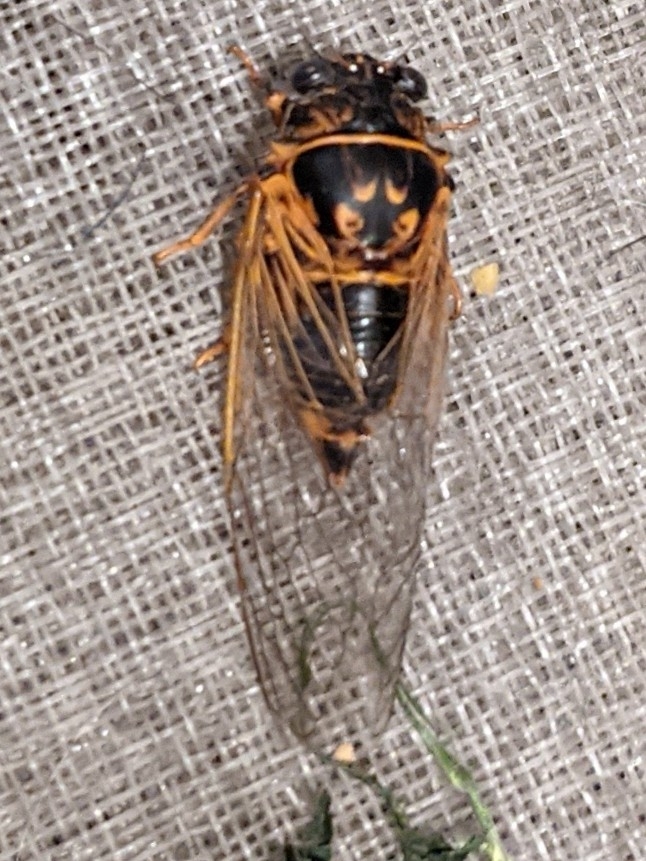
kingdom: Animalia
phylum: Arthropoda
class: Insecta
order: Hemiptera
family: Cicadidae
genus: Okanagana
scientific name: Okanagana arboraria
